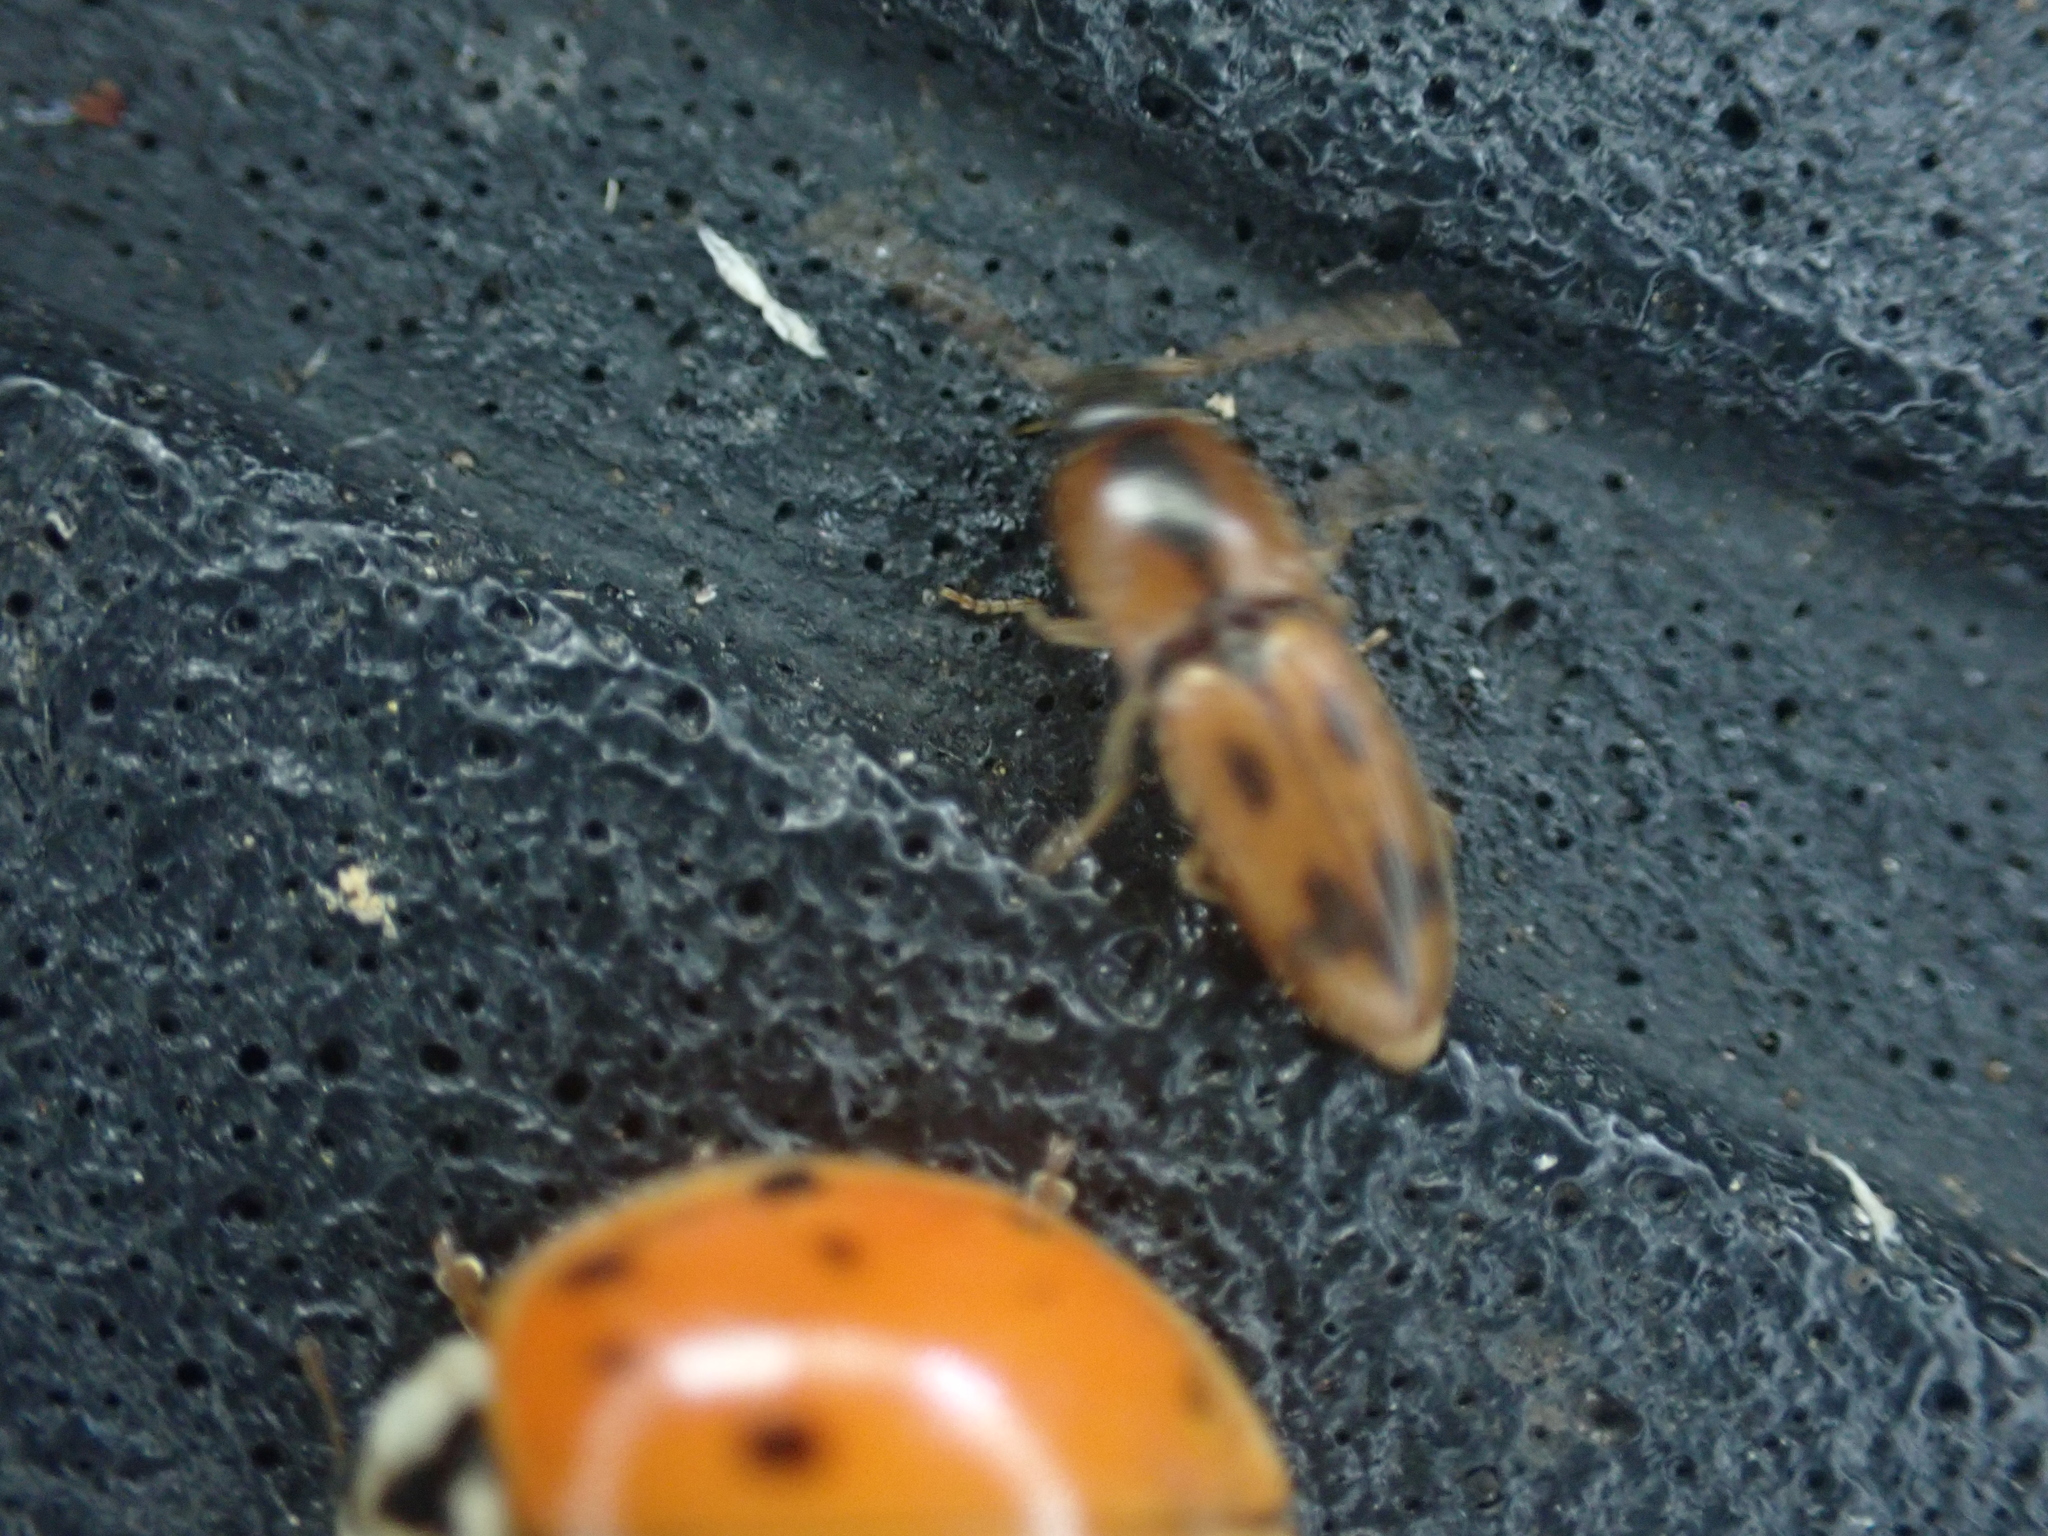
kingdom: Animalia
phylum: Arthropoda
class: Insecta
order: Coleoptera
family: Elateridae
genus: Aeolus
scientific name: Aeolus mellillus
